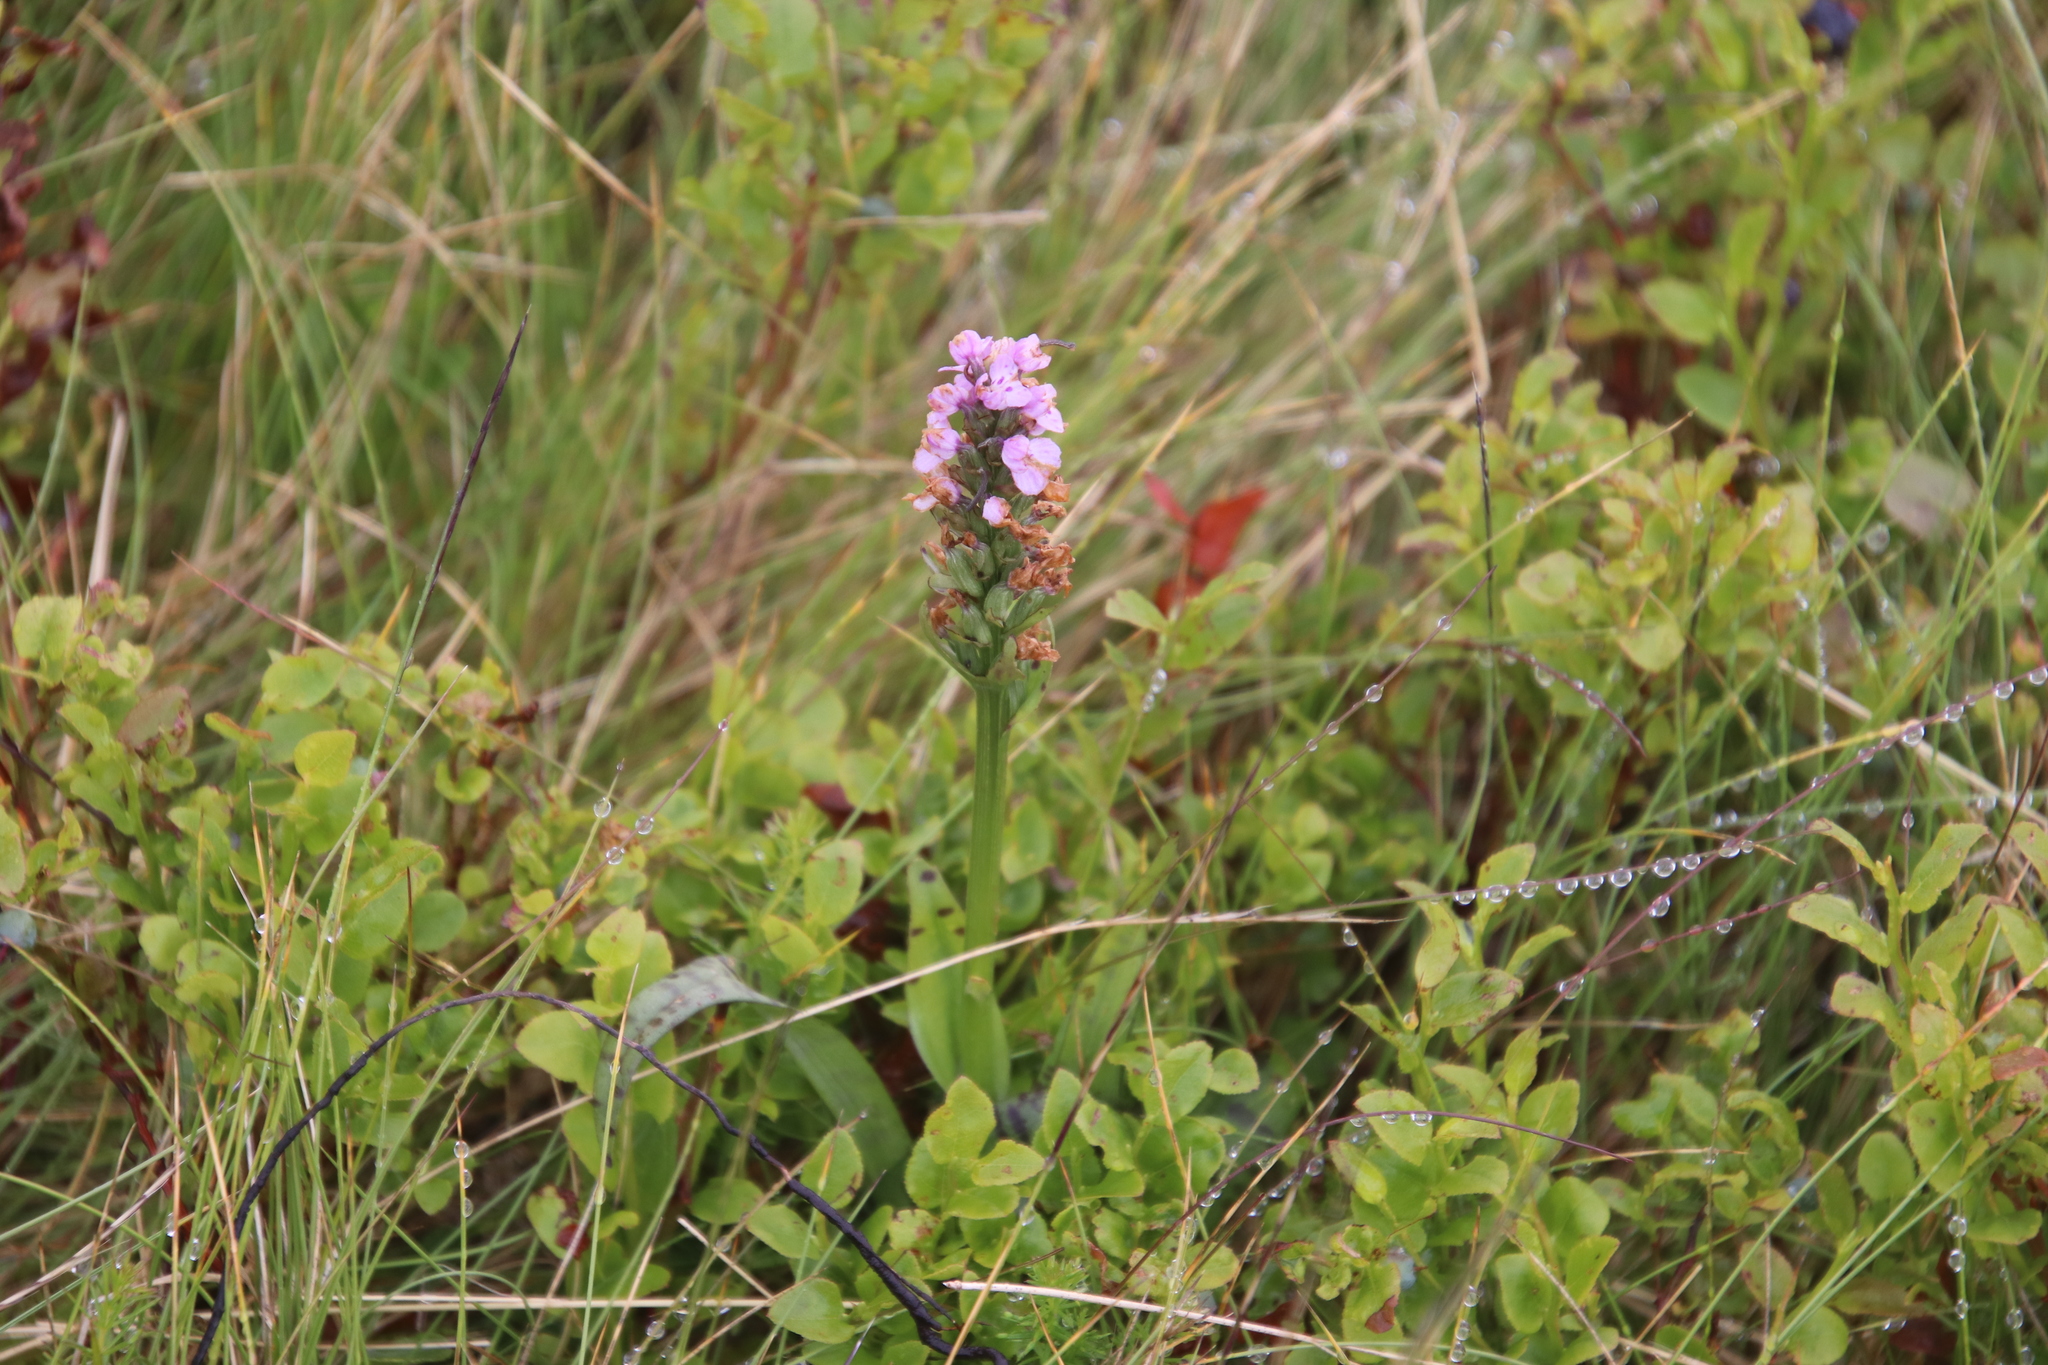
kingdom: Plantae
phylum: Tracheophyta
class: Liliopsida
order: Asparagales
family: Orchidaceae
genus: Dactylorhiza
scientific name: Dactylorhiza maculata
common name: Heath spotted-orchid
